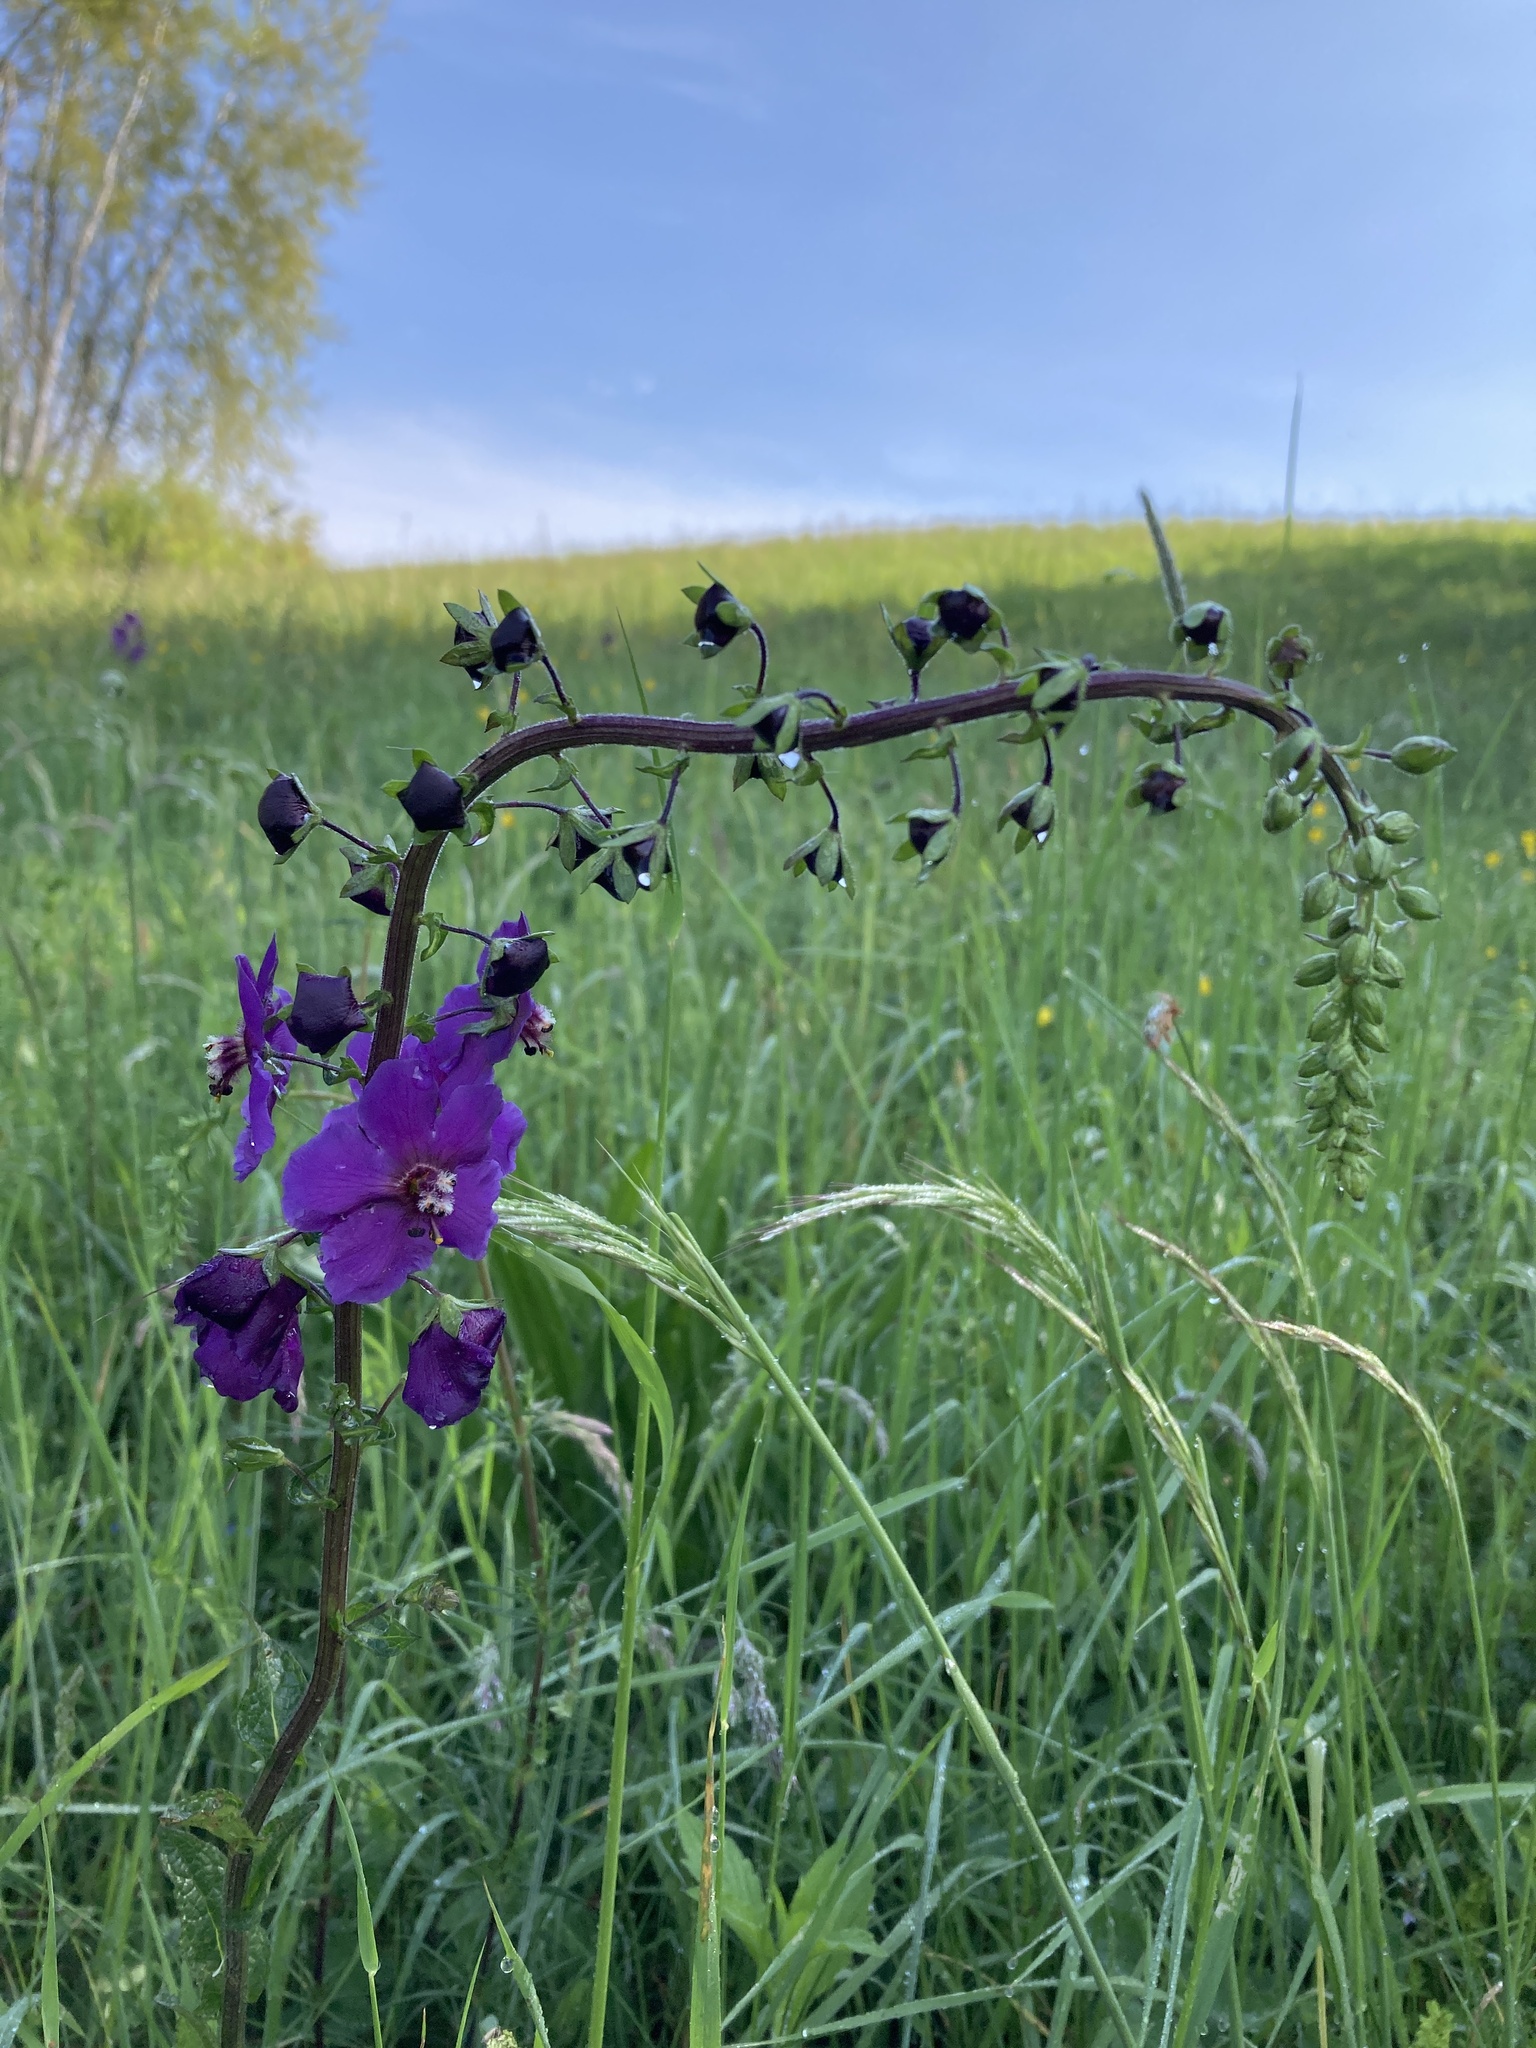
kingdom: Plantae
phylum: Tracheophyta
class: Magnoliopsida
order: Lamiales
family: Scrophulariaceae
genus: Verbascum
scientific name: Verbascum phoeniceum
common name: Purple mullein
